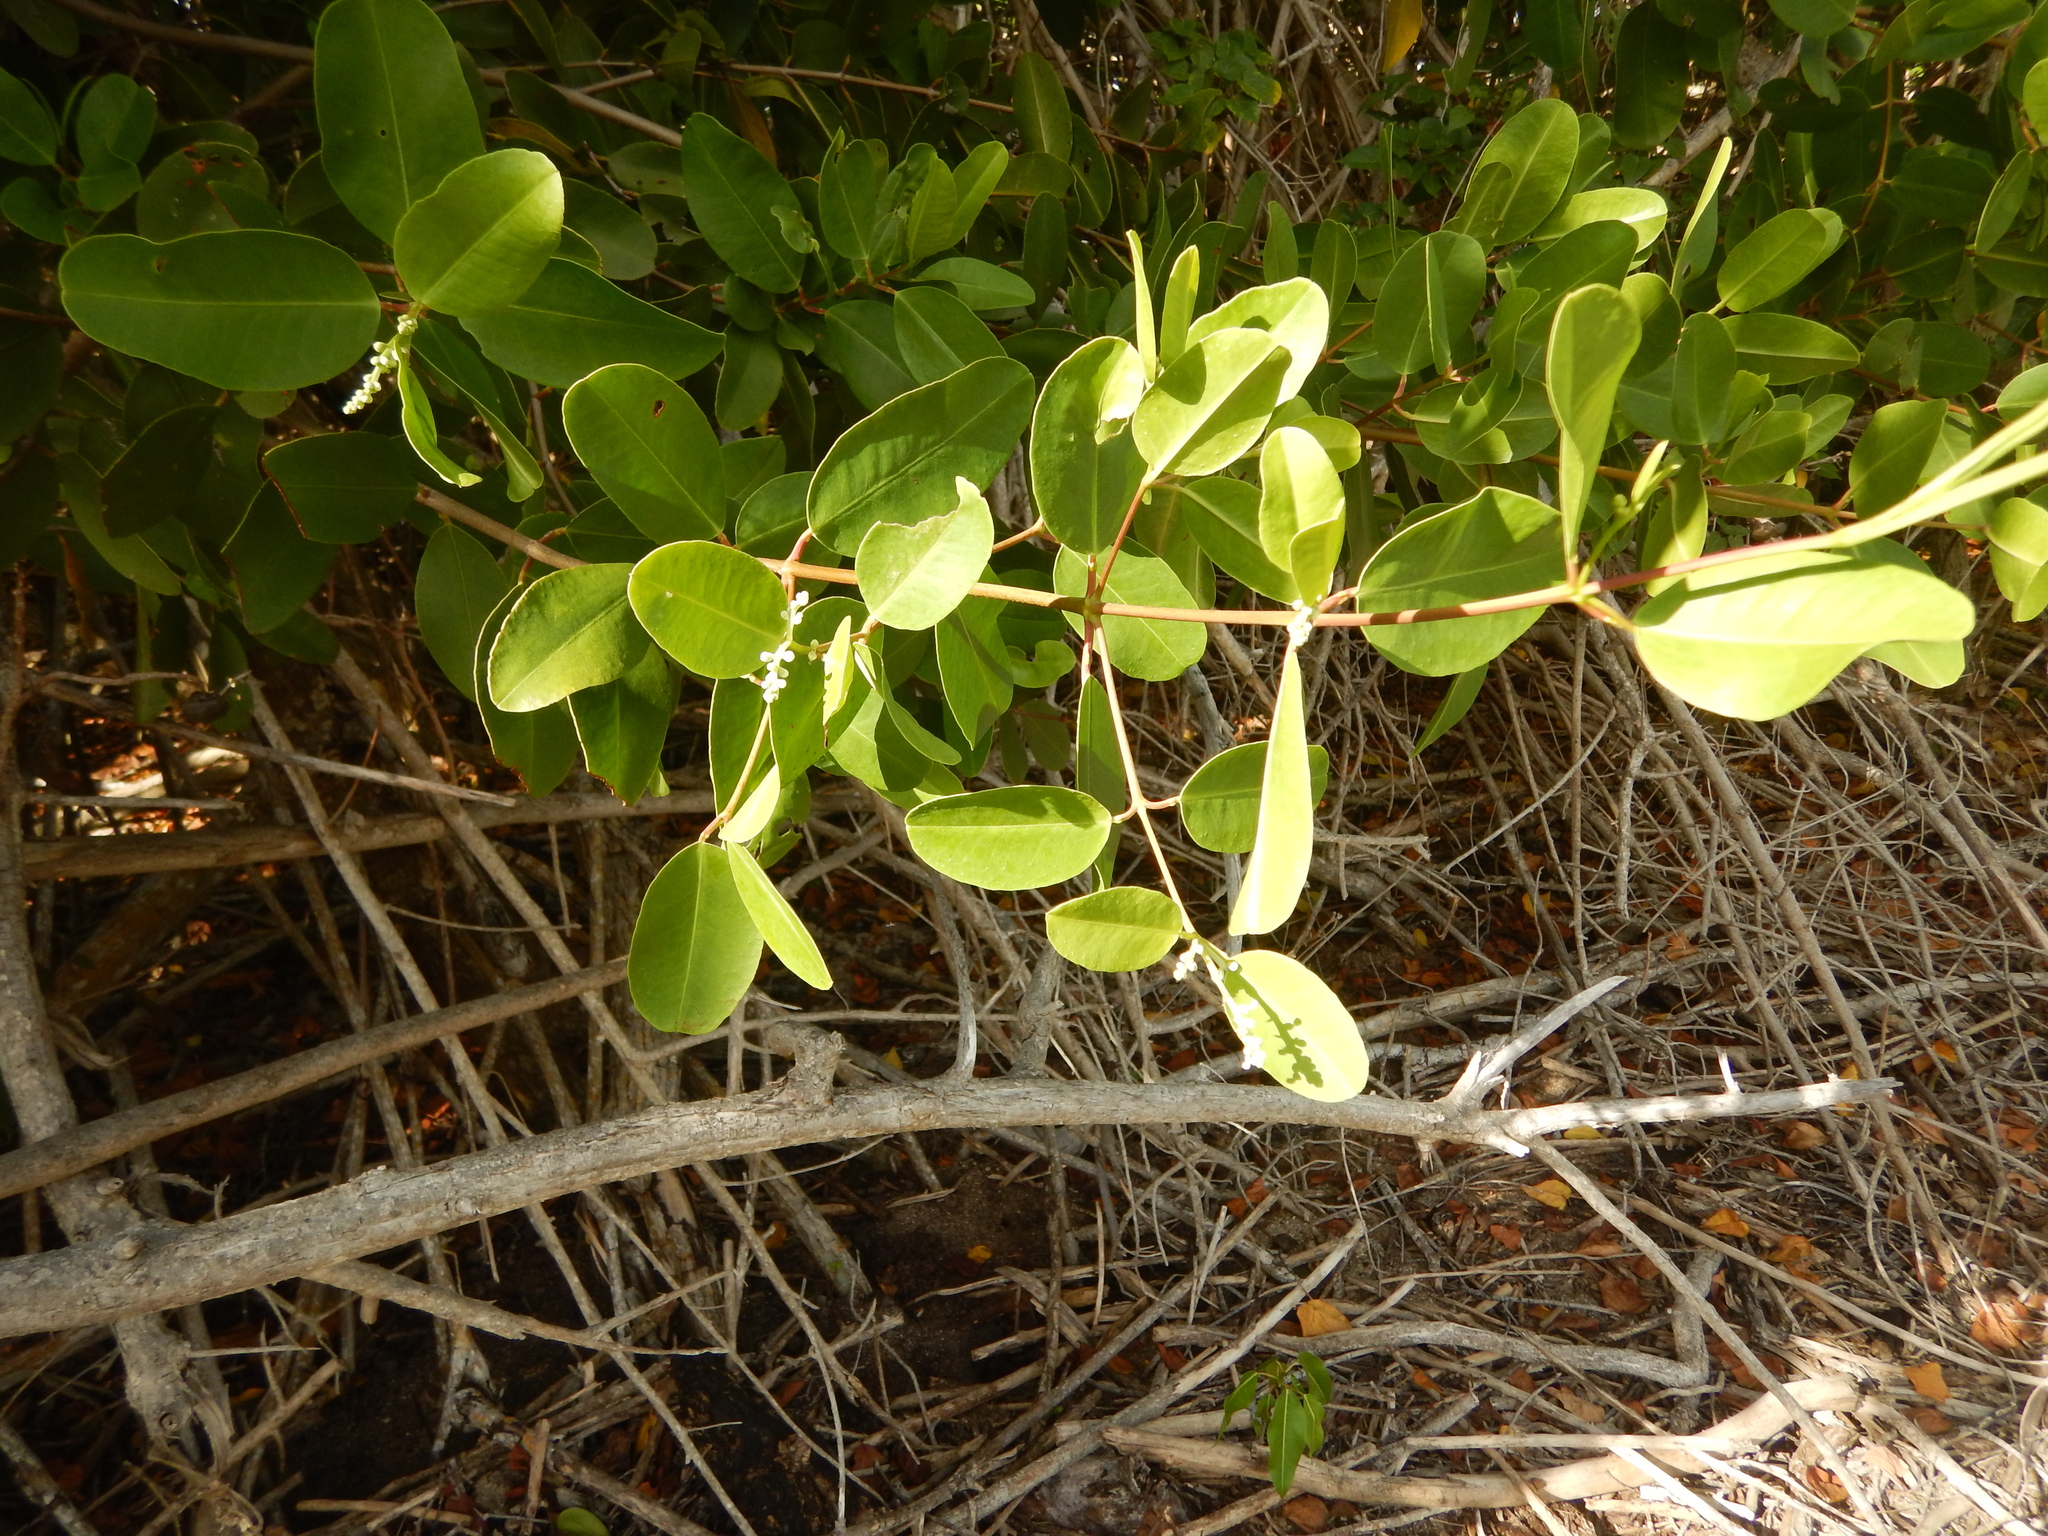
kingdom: Plantae
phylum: Tracheophyta
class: Magnoliopsida
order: Myrtales
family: Combretaceae
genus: Laguncularia
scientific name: Laguncularia racemosa
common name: White mangrove
